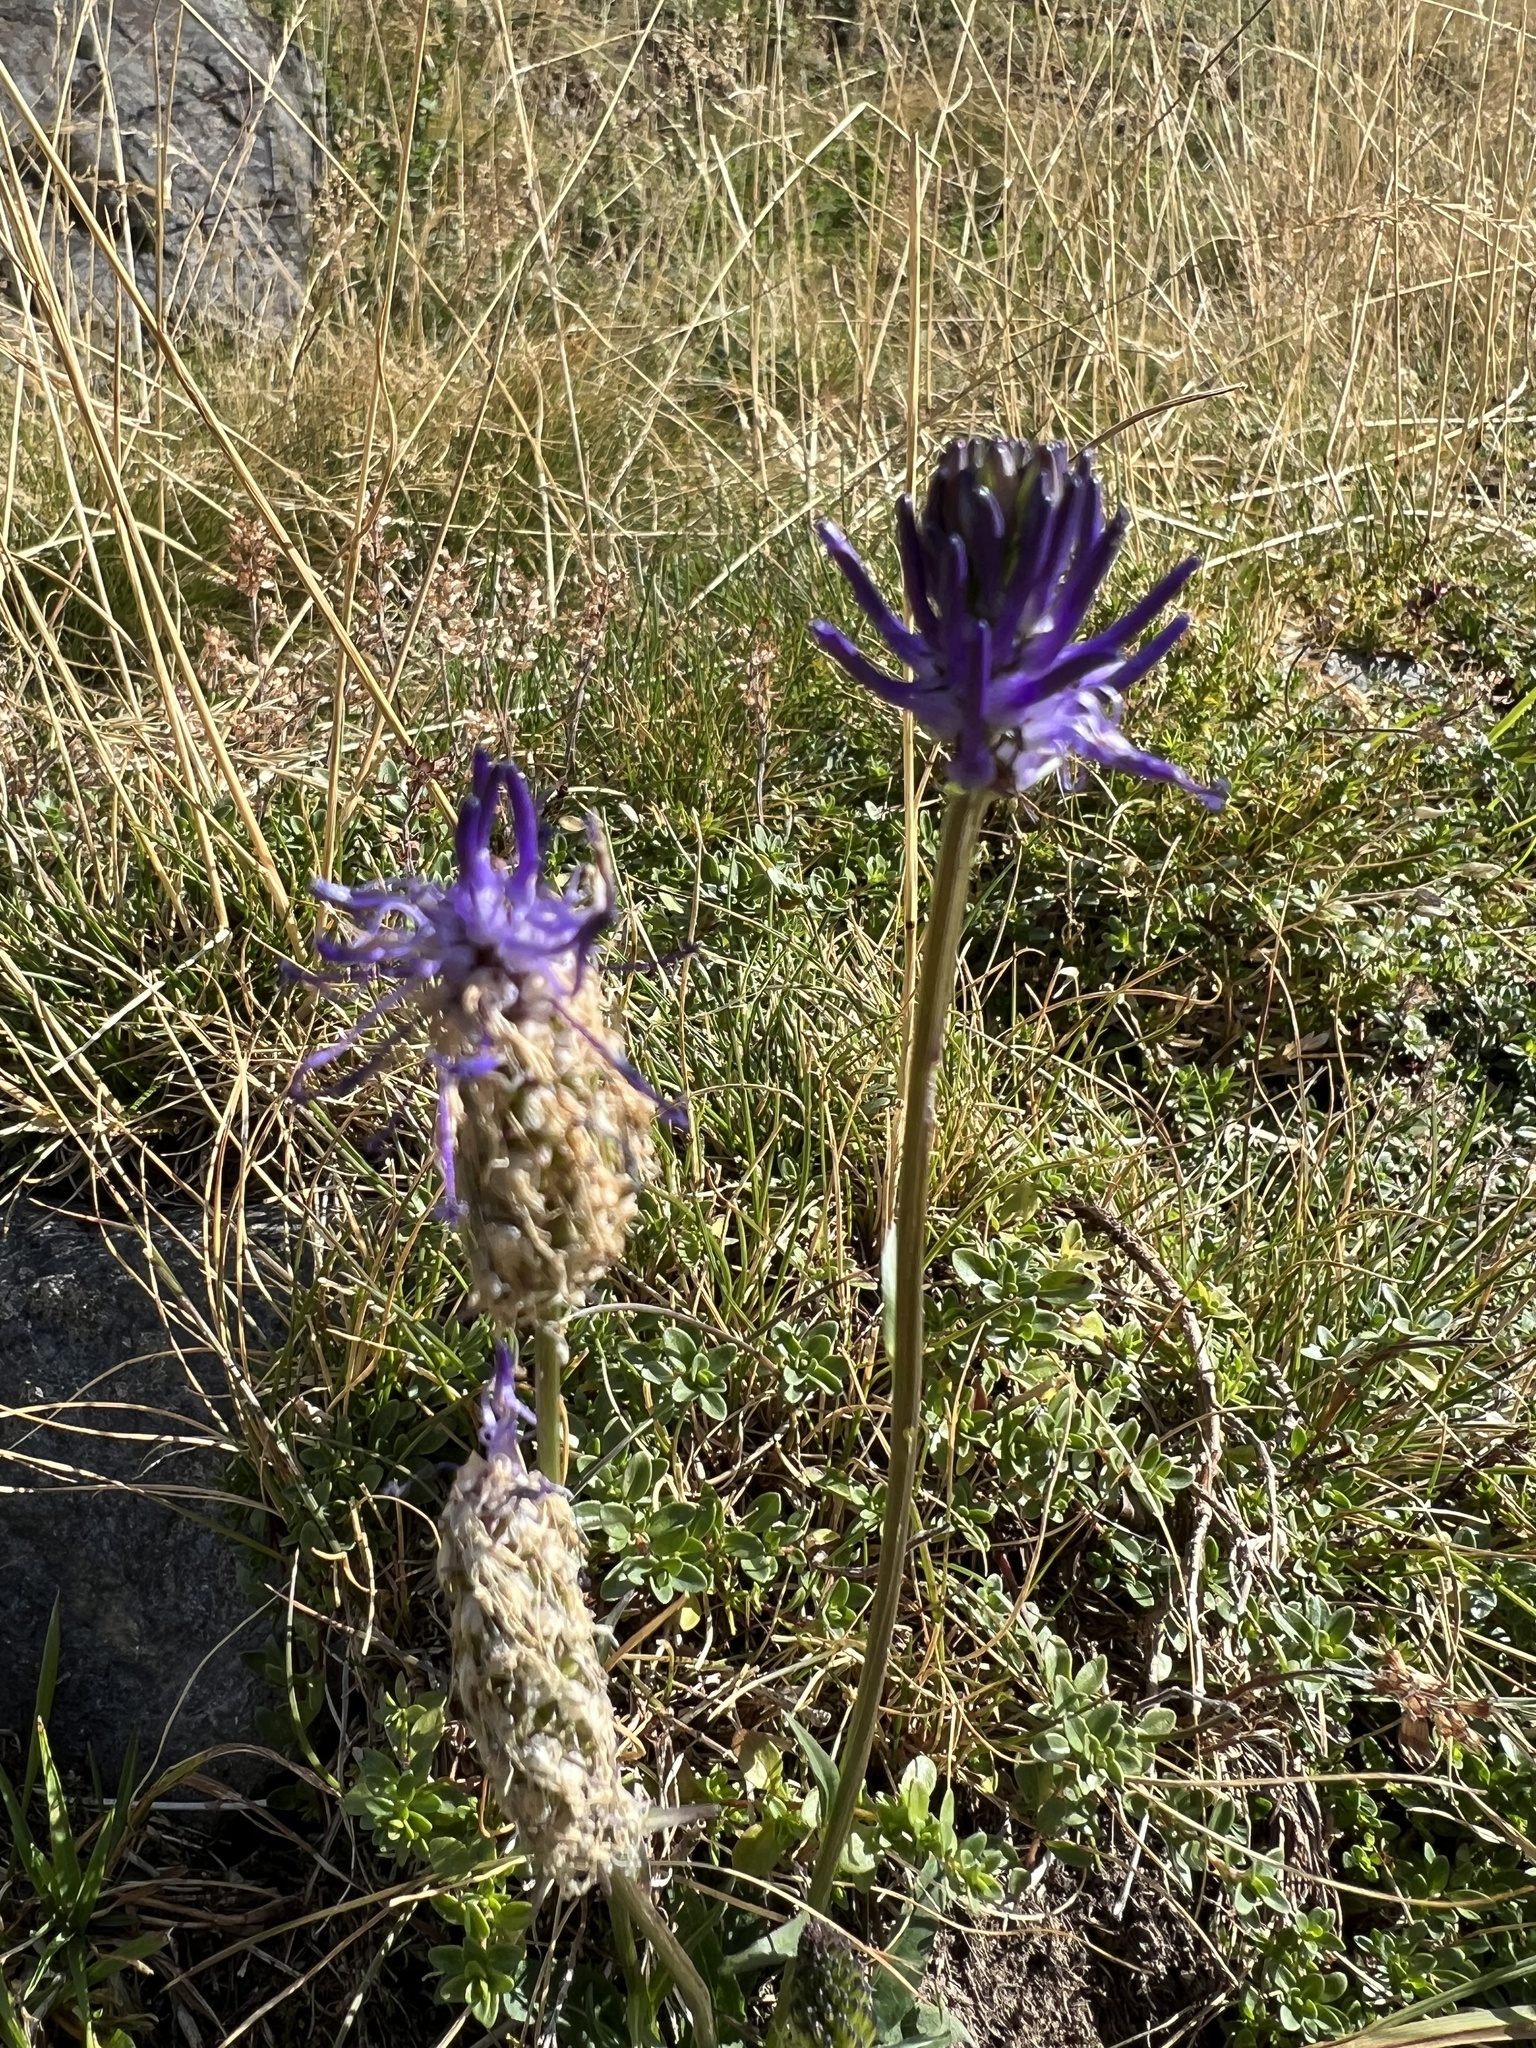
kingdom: Plantae
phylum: Tracheophyta
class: Magnoliopsida
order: Asterales
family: Campanulaceae
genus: Phyteuma
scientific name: Phyteuma betonicifolium
